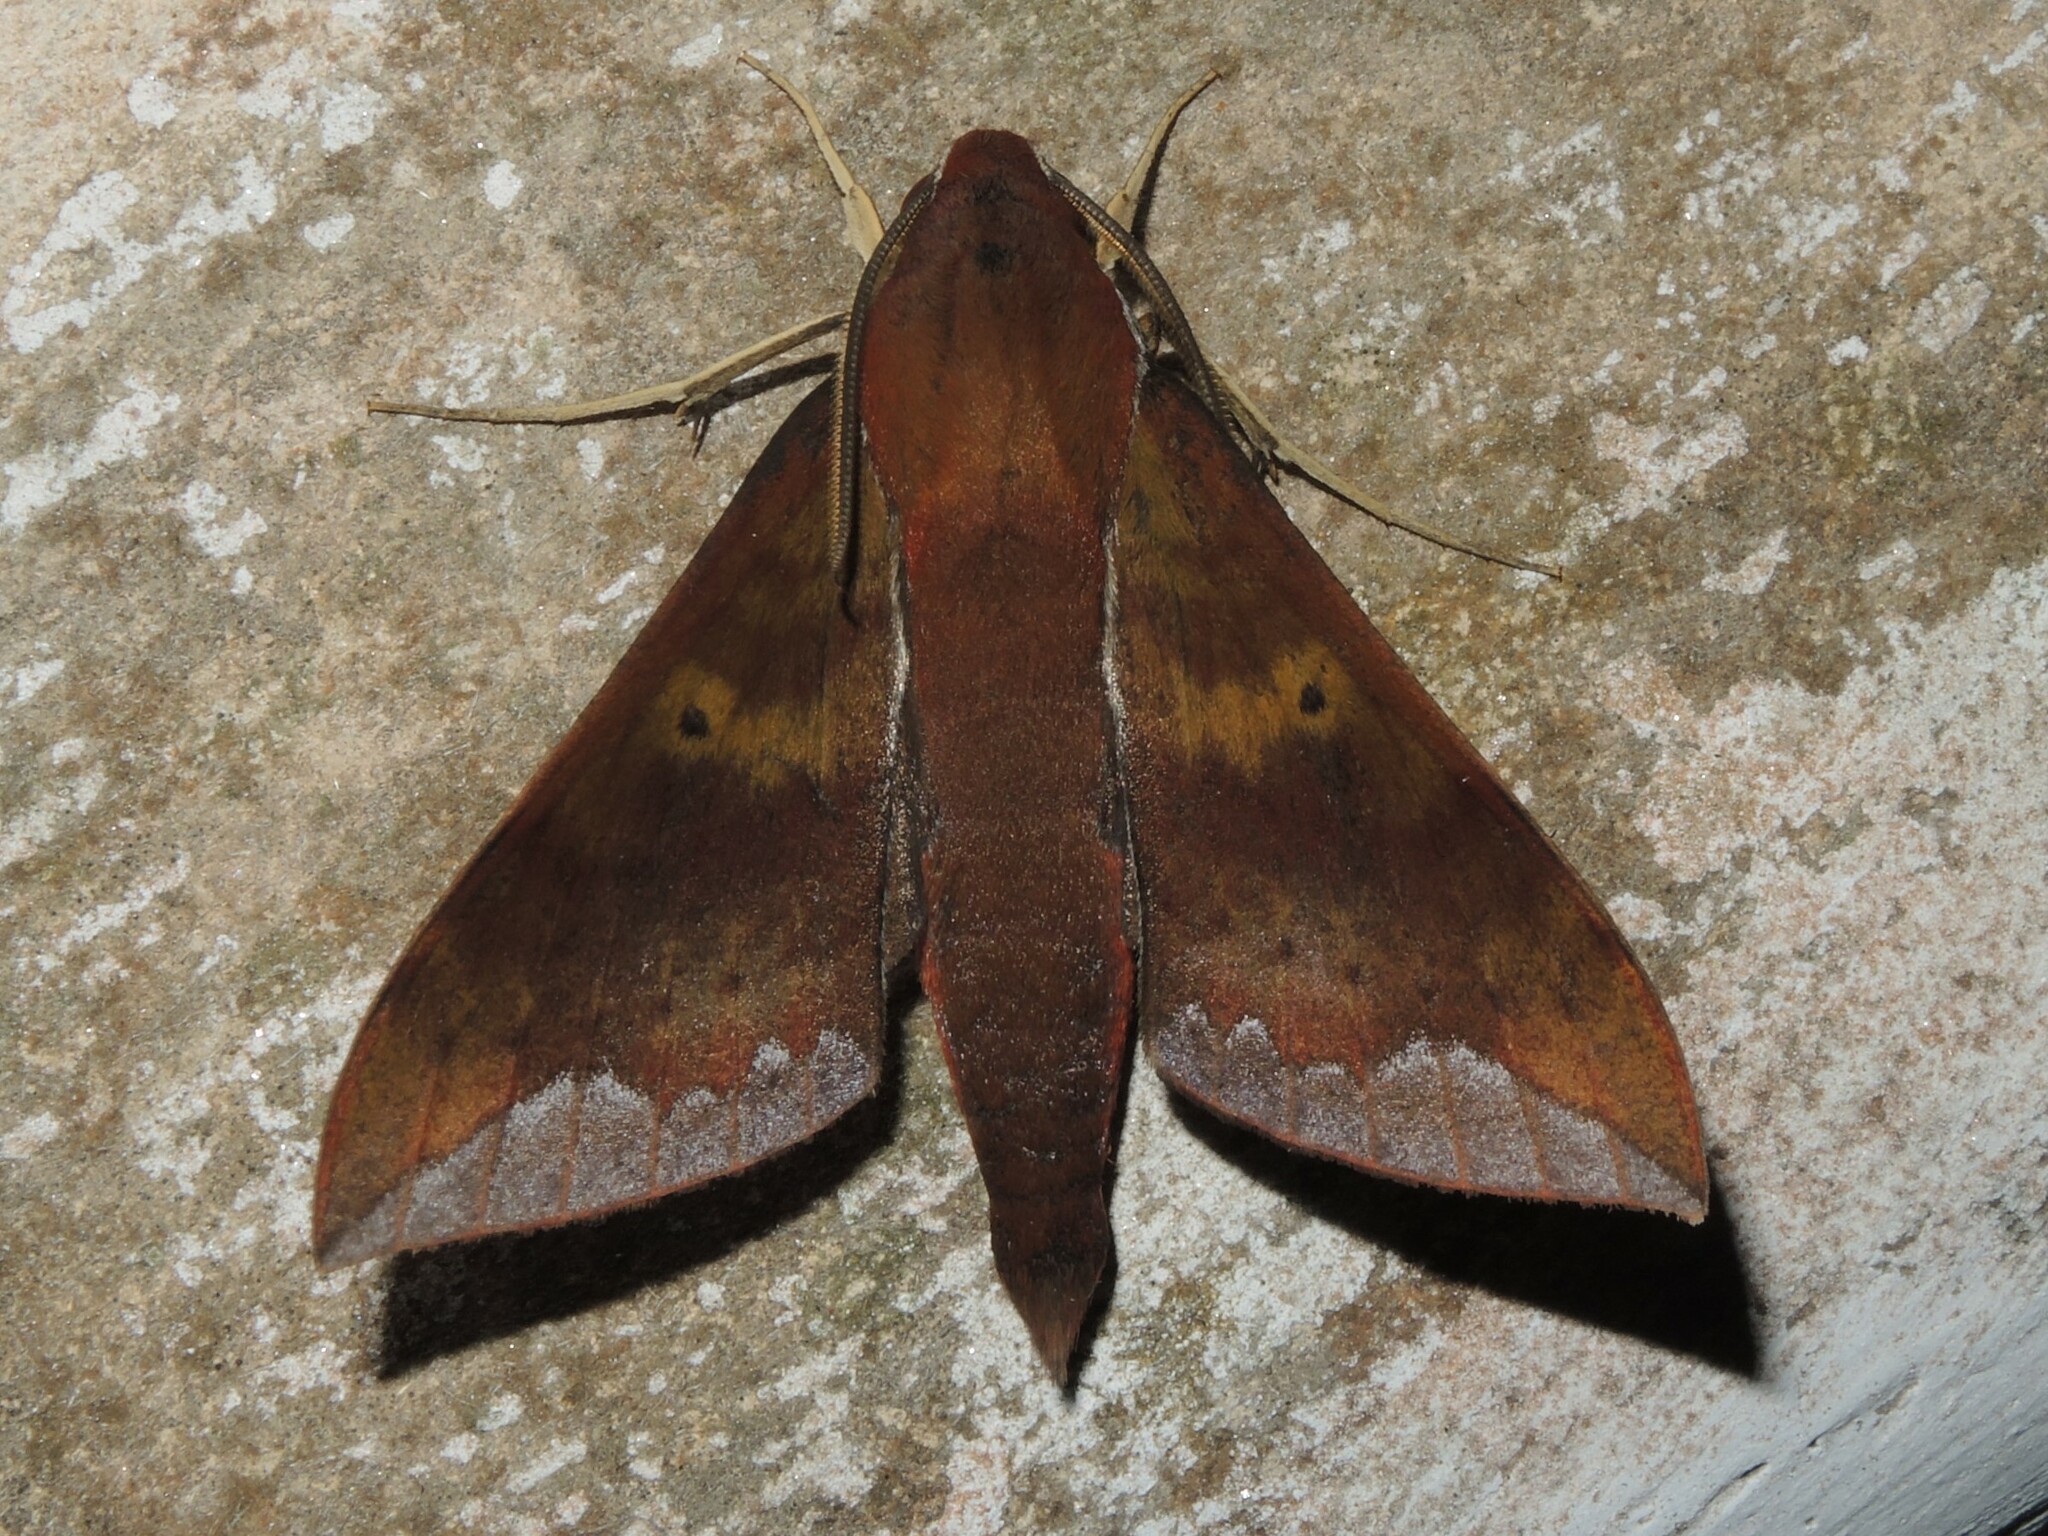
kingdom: Animalia
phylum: Arthropoda
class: Insecta
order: Lepidoptera
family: Sphingidae
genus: Rhagastis
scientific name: Rhagastis olivacea
